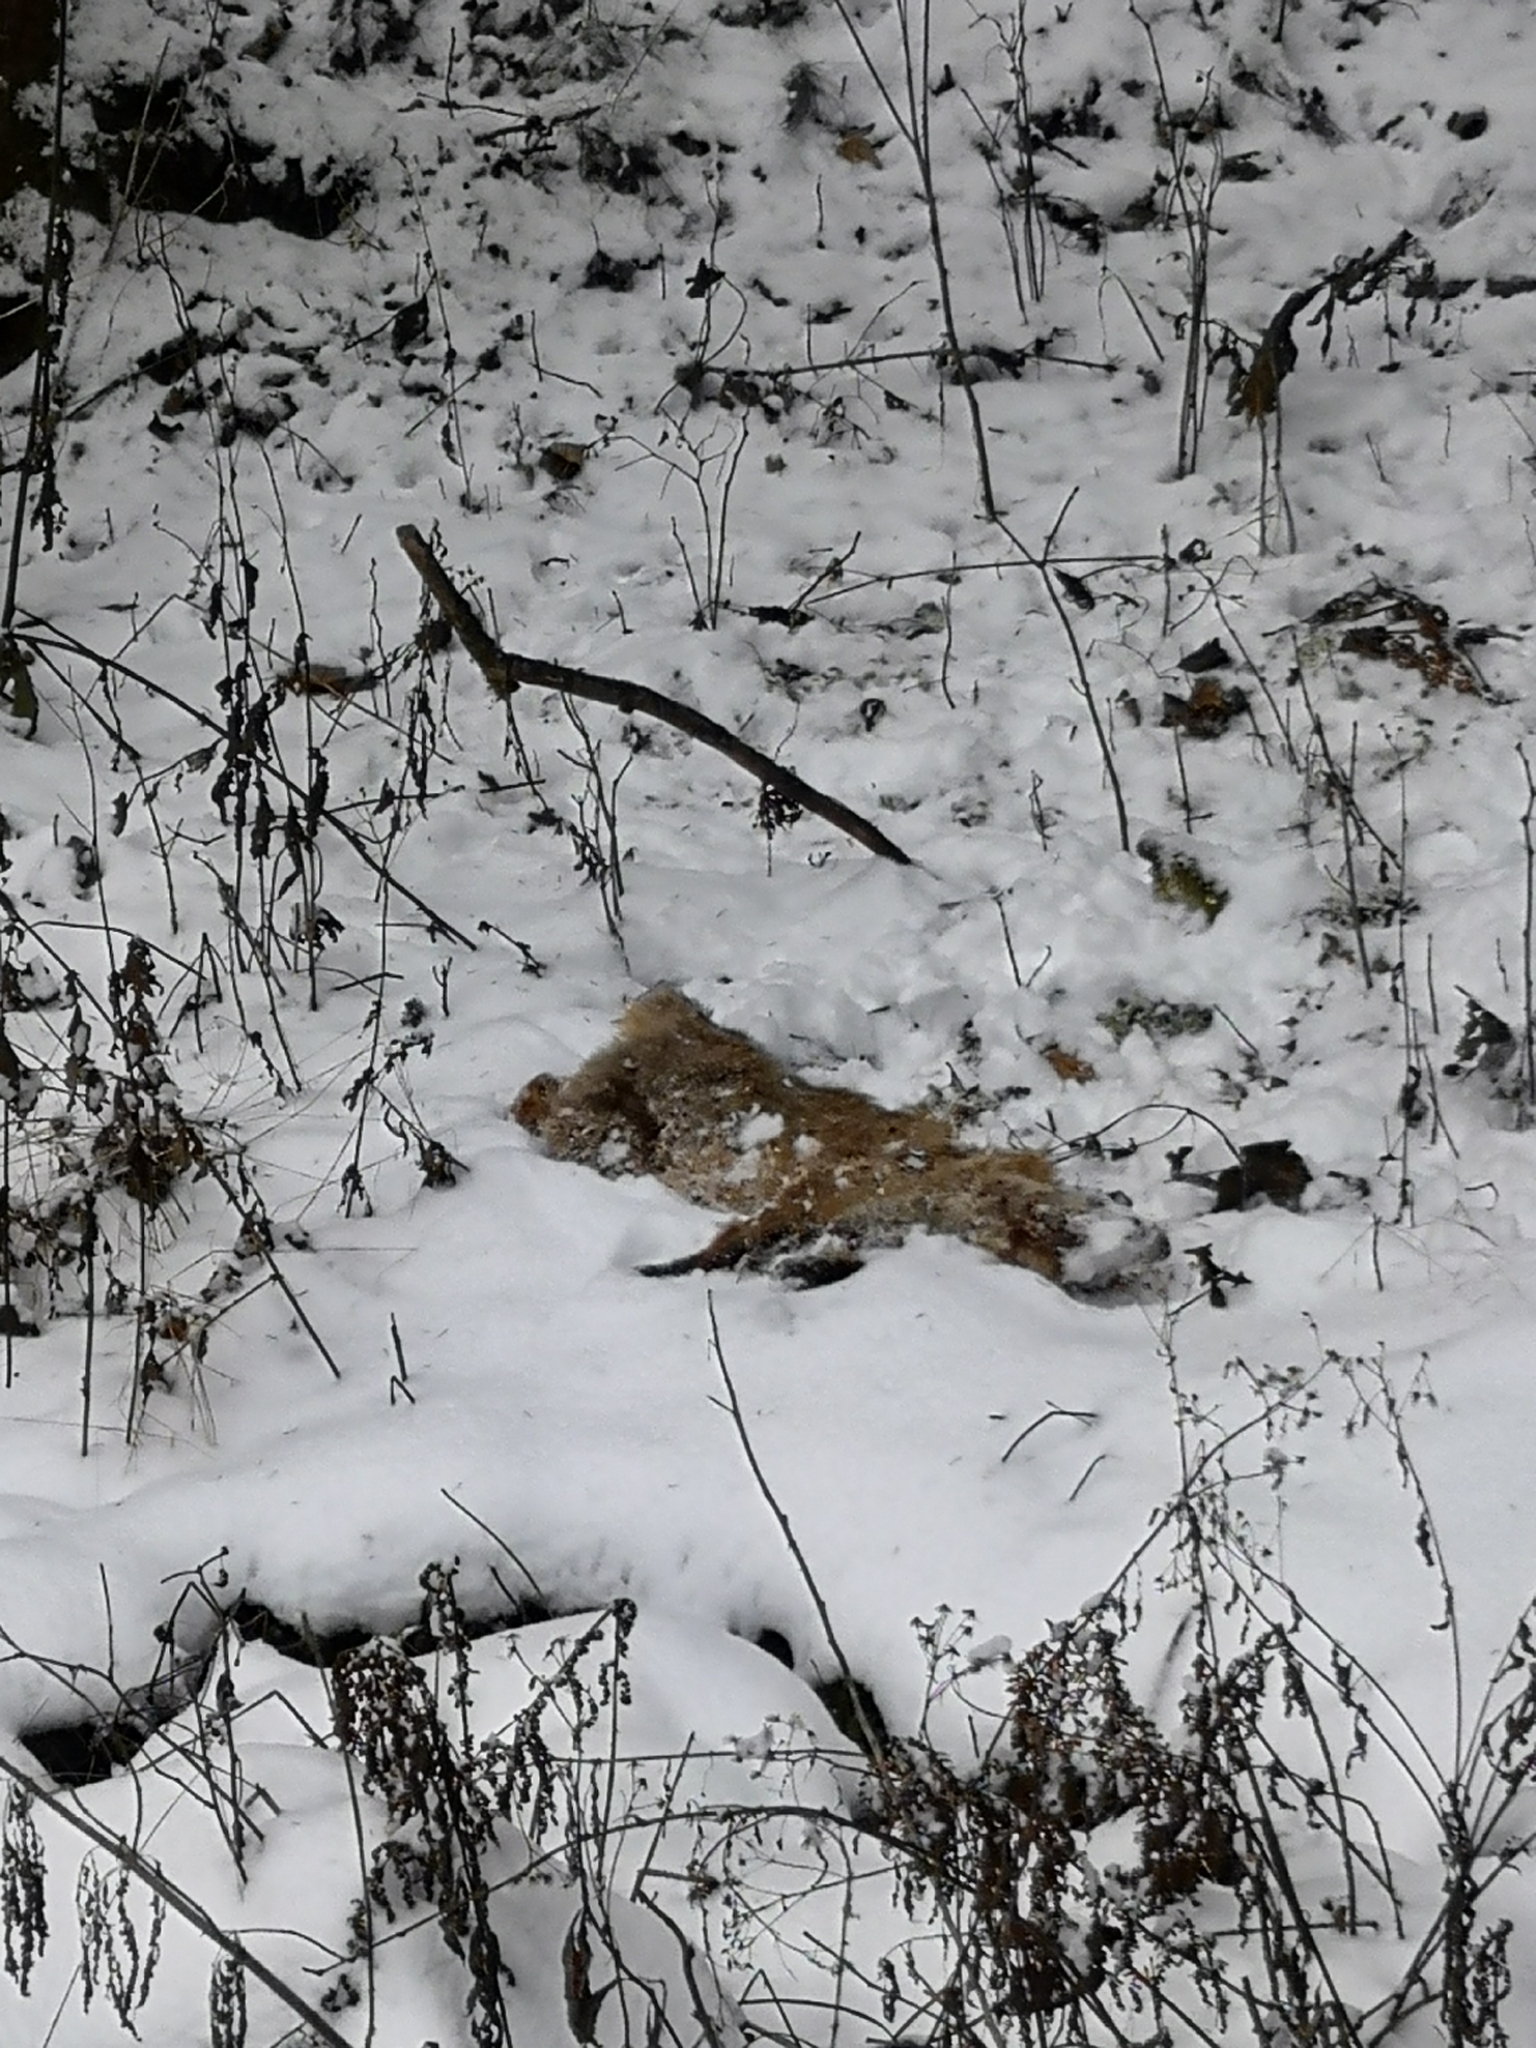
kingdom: Animalia
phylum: Chordata
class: Mammalia
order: Carnivora
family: Canidae
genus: Vulpes
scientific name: Vulpes vulpes
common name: Red fox
